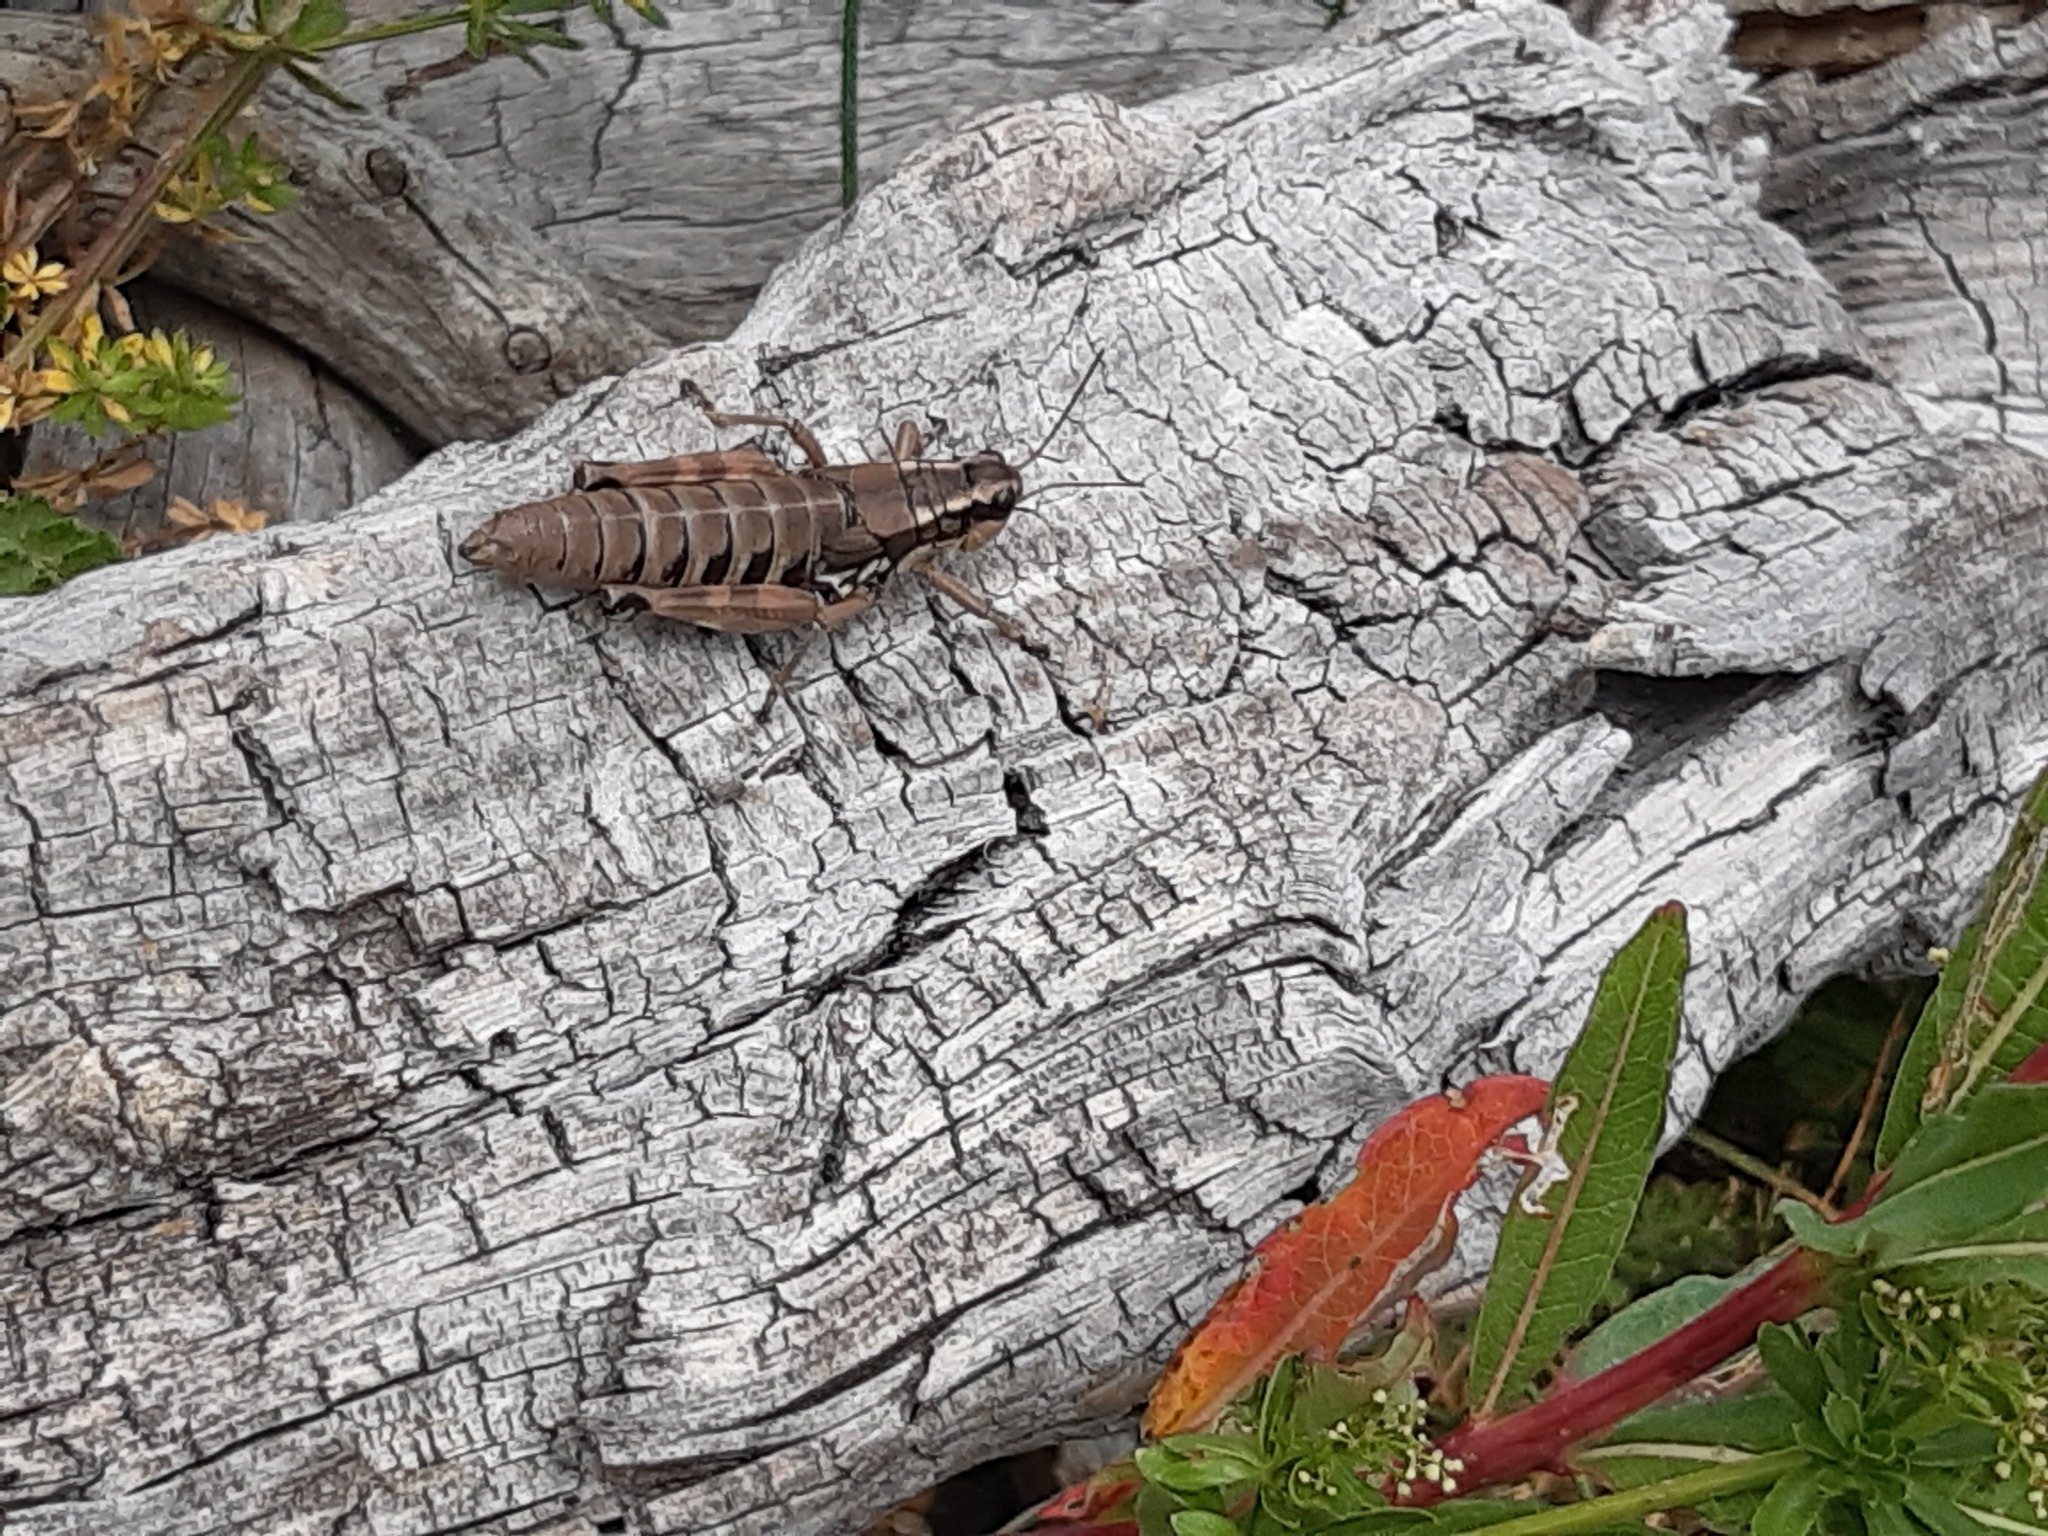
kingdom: Animalia
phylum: Arthropoda
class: Insecta
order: Orthoptera
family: Acrididae
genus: Podisma
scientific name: Podisma pedestris
